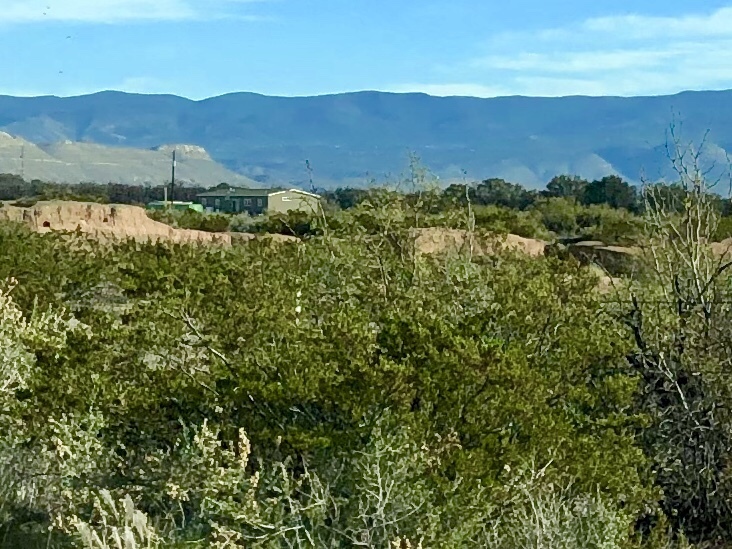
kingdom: Plantae
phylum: Tracheophyta
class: Magnoliopsida
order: Zygophyllales
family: Zygophyllaceae
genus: Larrea
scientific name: Larrea tridentata
